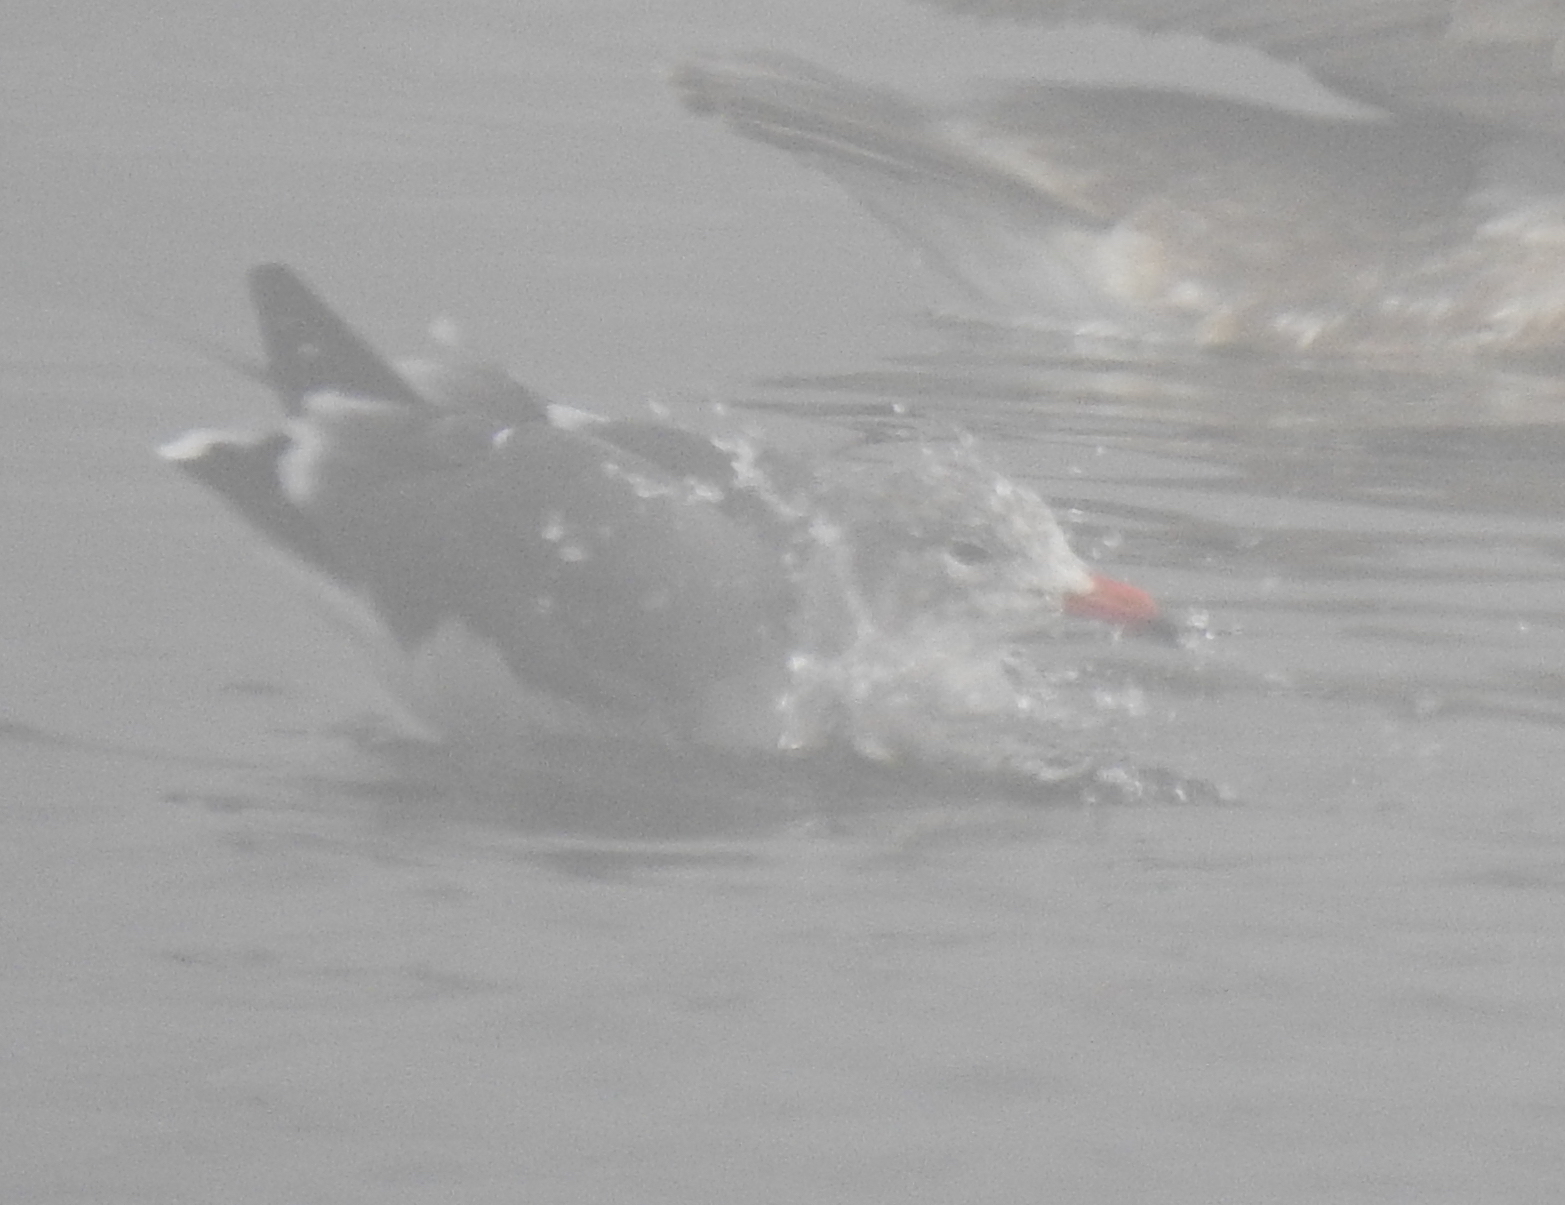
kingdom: Animalia
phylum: Chordata
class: Aves
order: Charadriiformes
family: Laridae
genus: Larus
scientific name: Larus heermanni
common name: Heermann's gull
